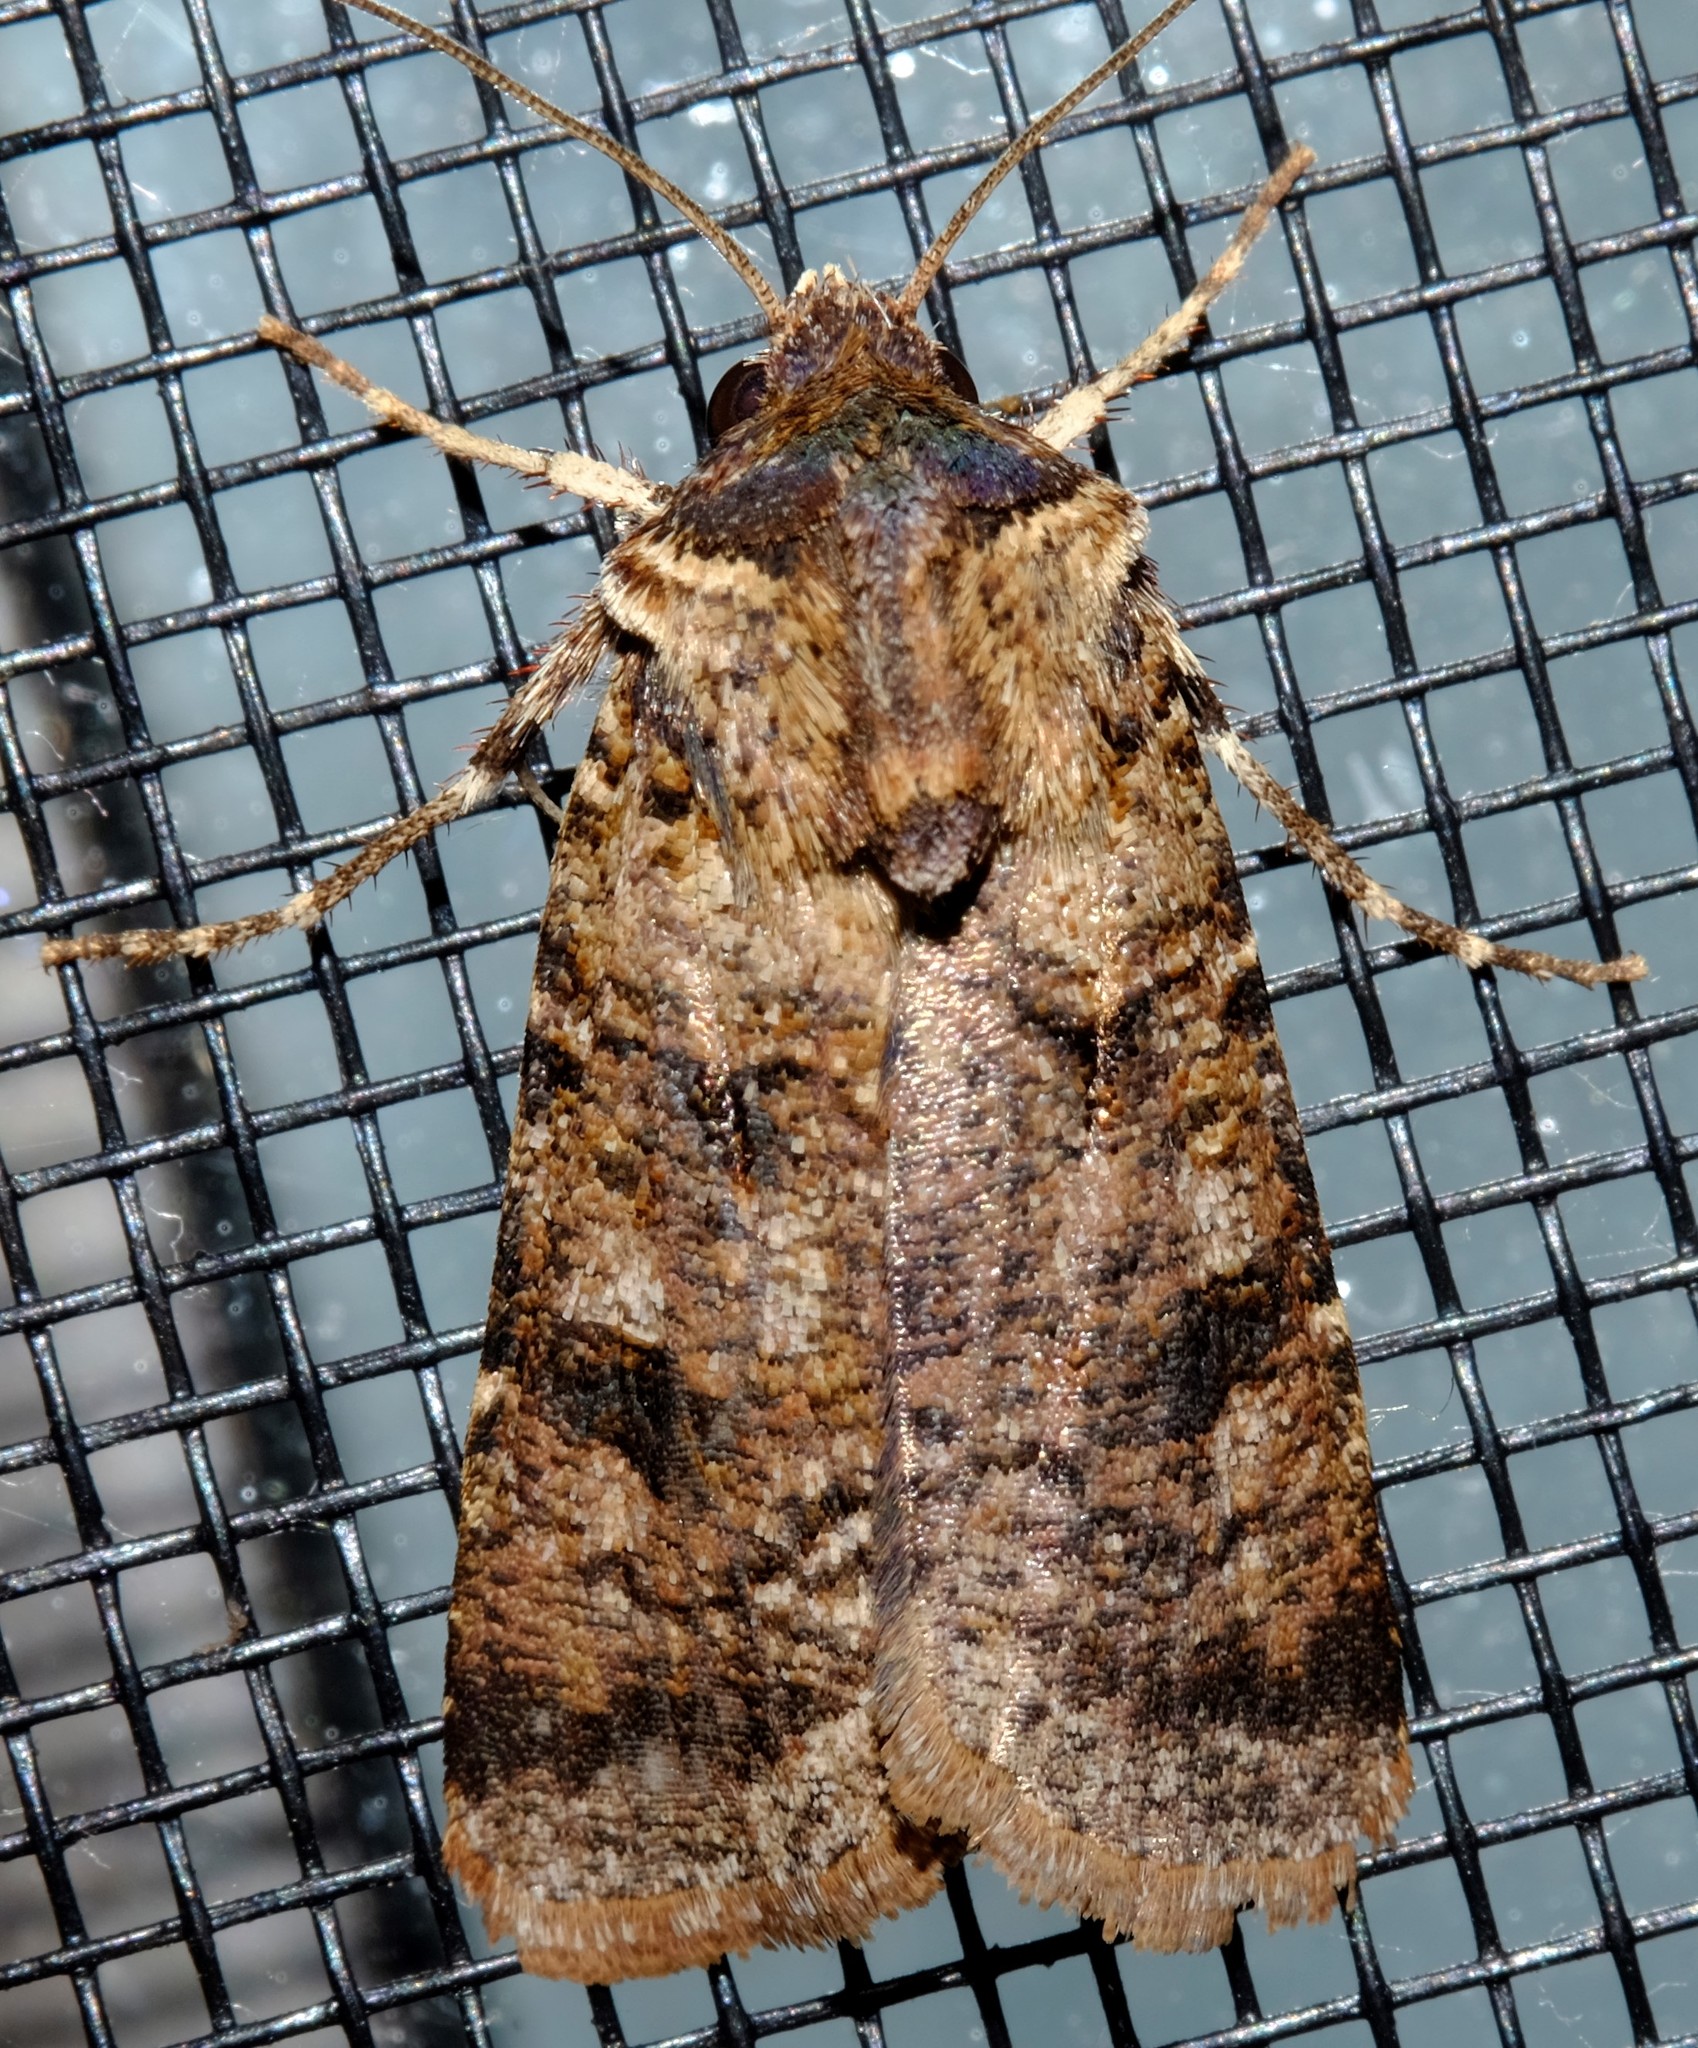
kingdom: Animalia
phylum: Arthropoda
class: Insecta
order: Lepidoptera
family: Noctuidae
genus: Agrotis
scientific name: Agrotis porphyricollis
